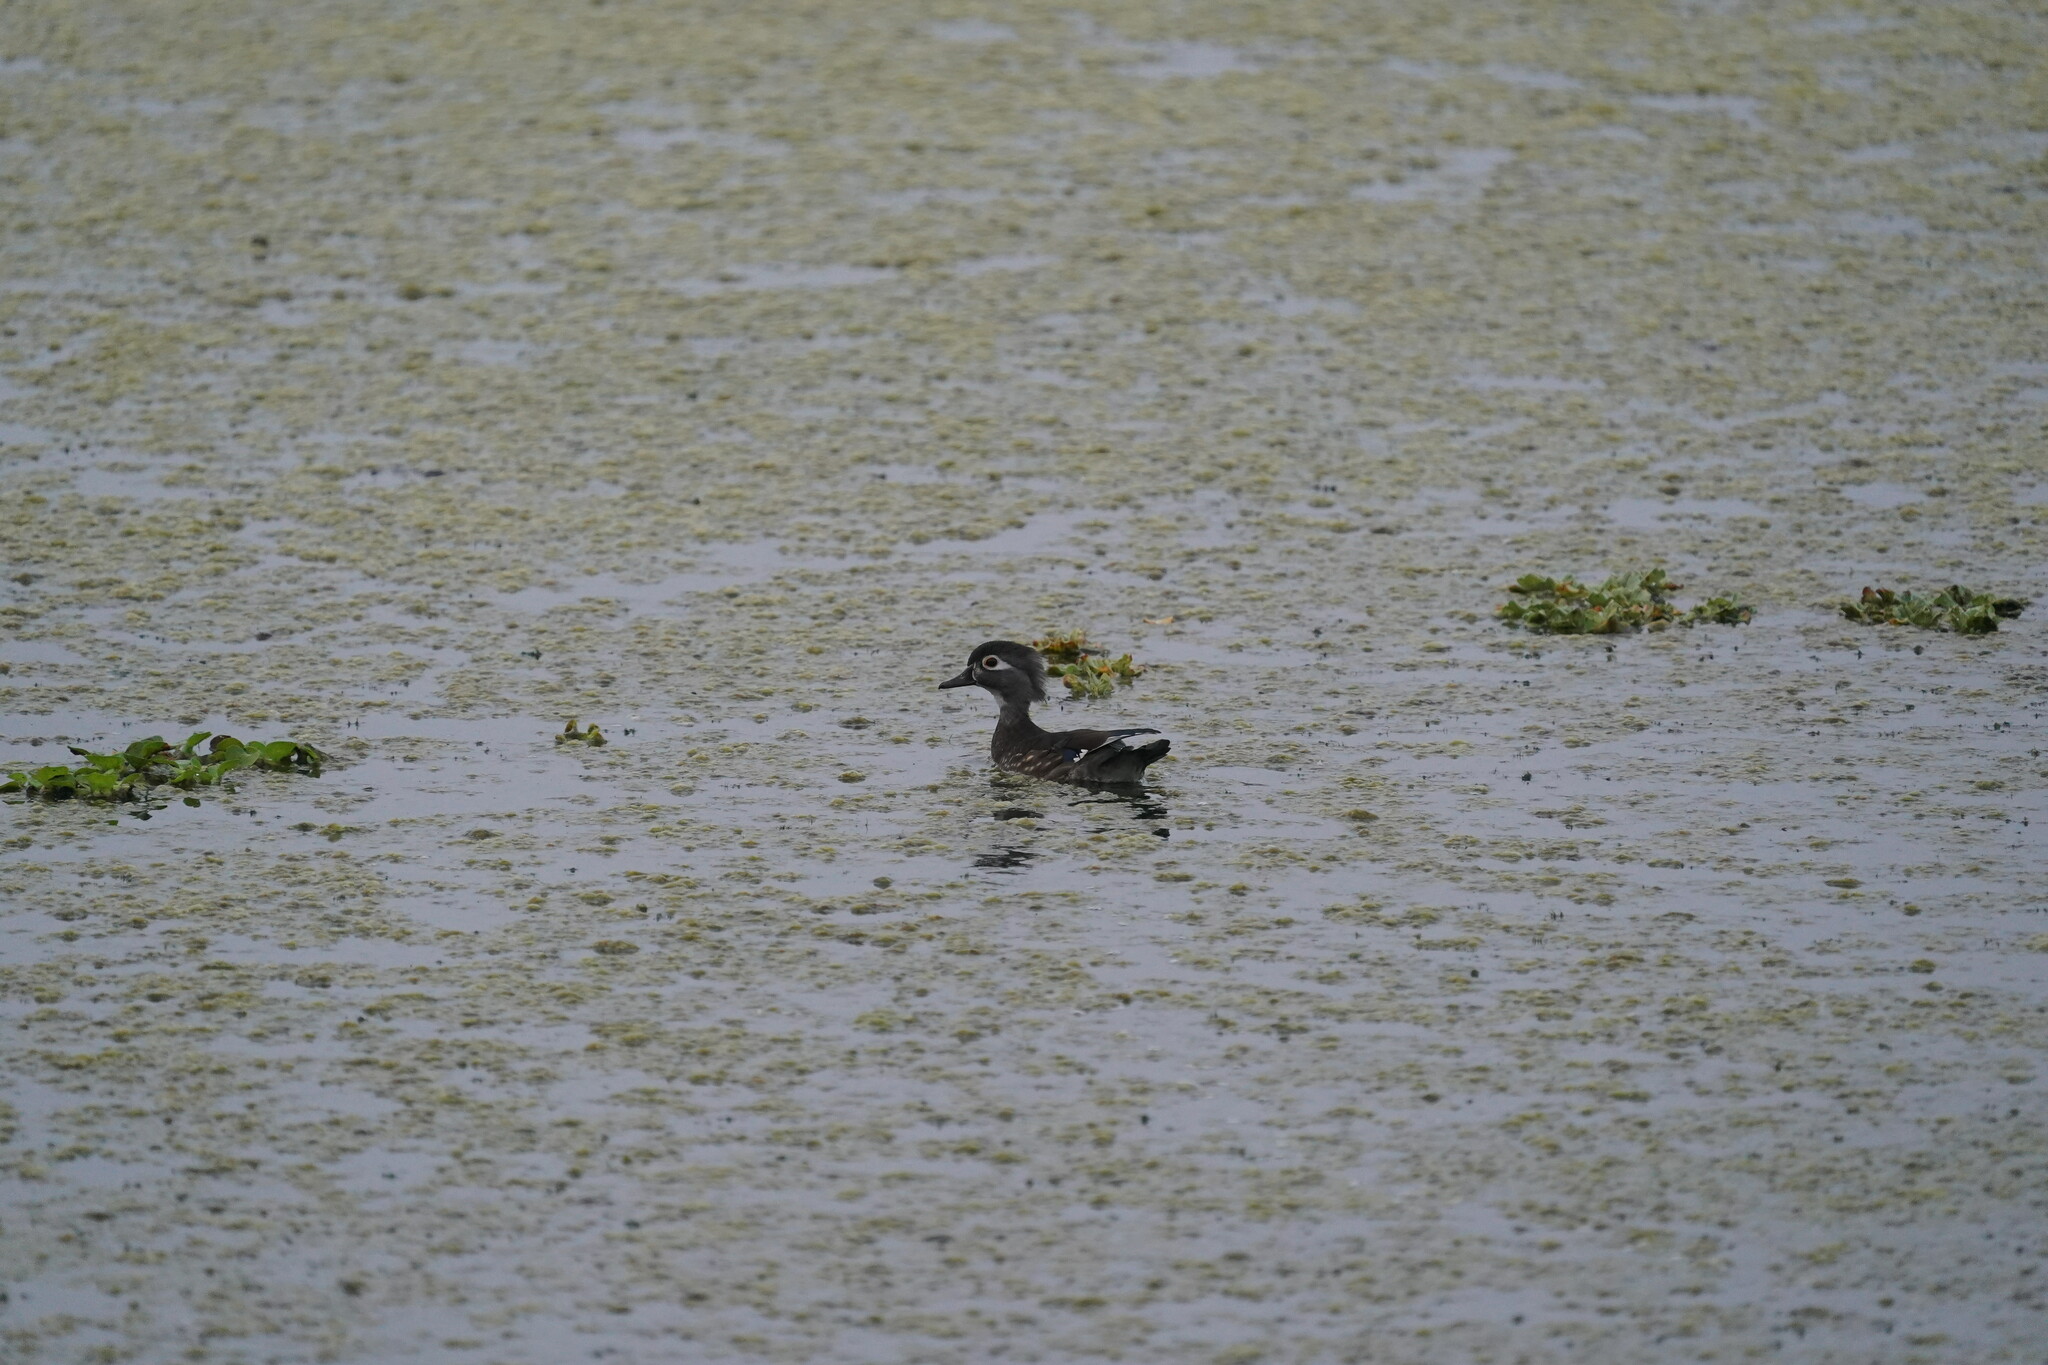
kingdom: Animalia
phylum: Chordata
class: Aves
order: Anseriformes
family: Anatidae
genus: Aix
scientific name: Aix sponsa
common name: Wood duck
